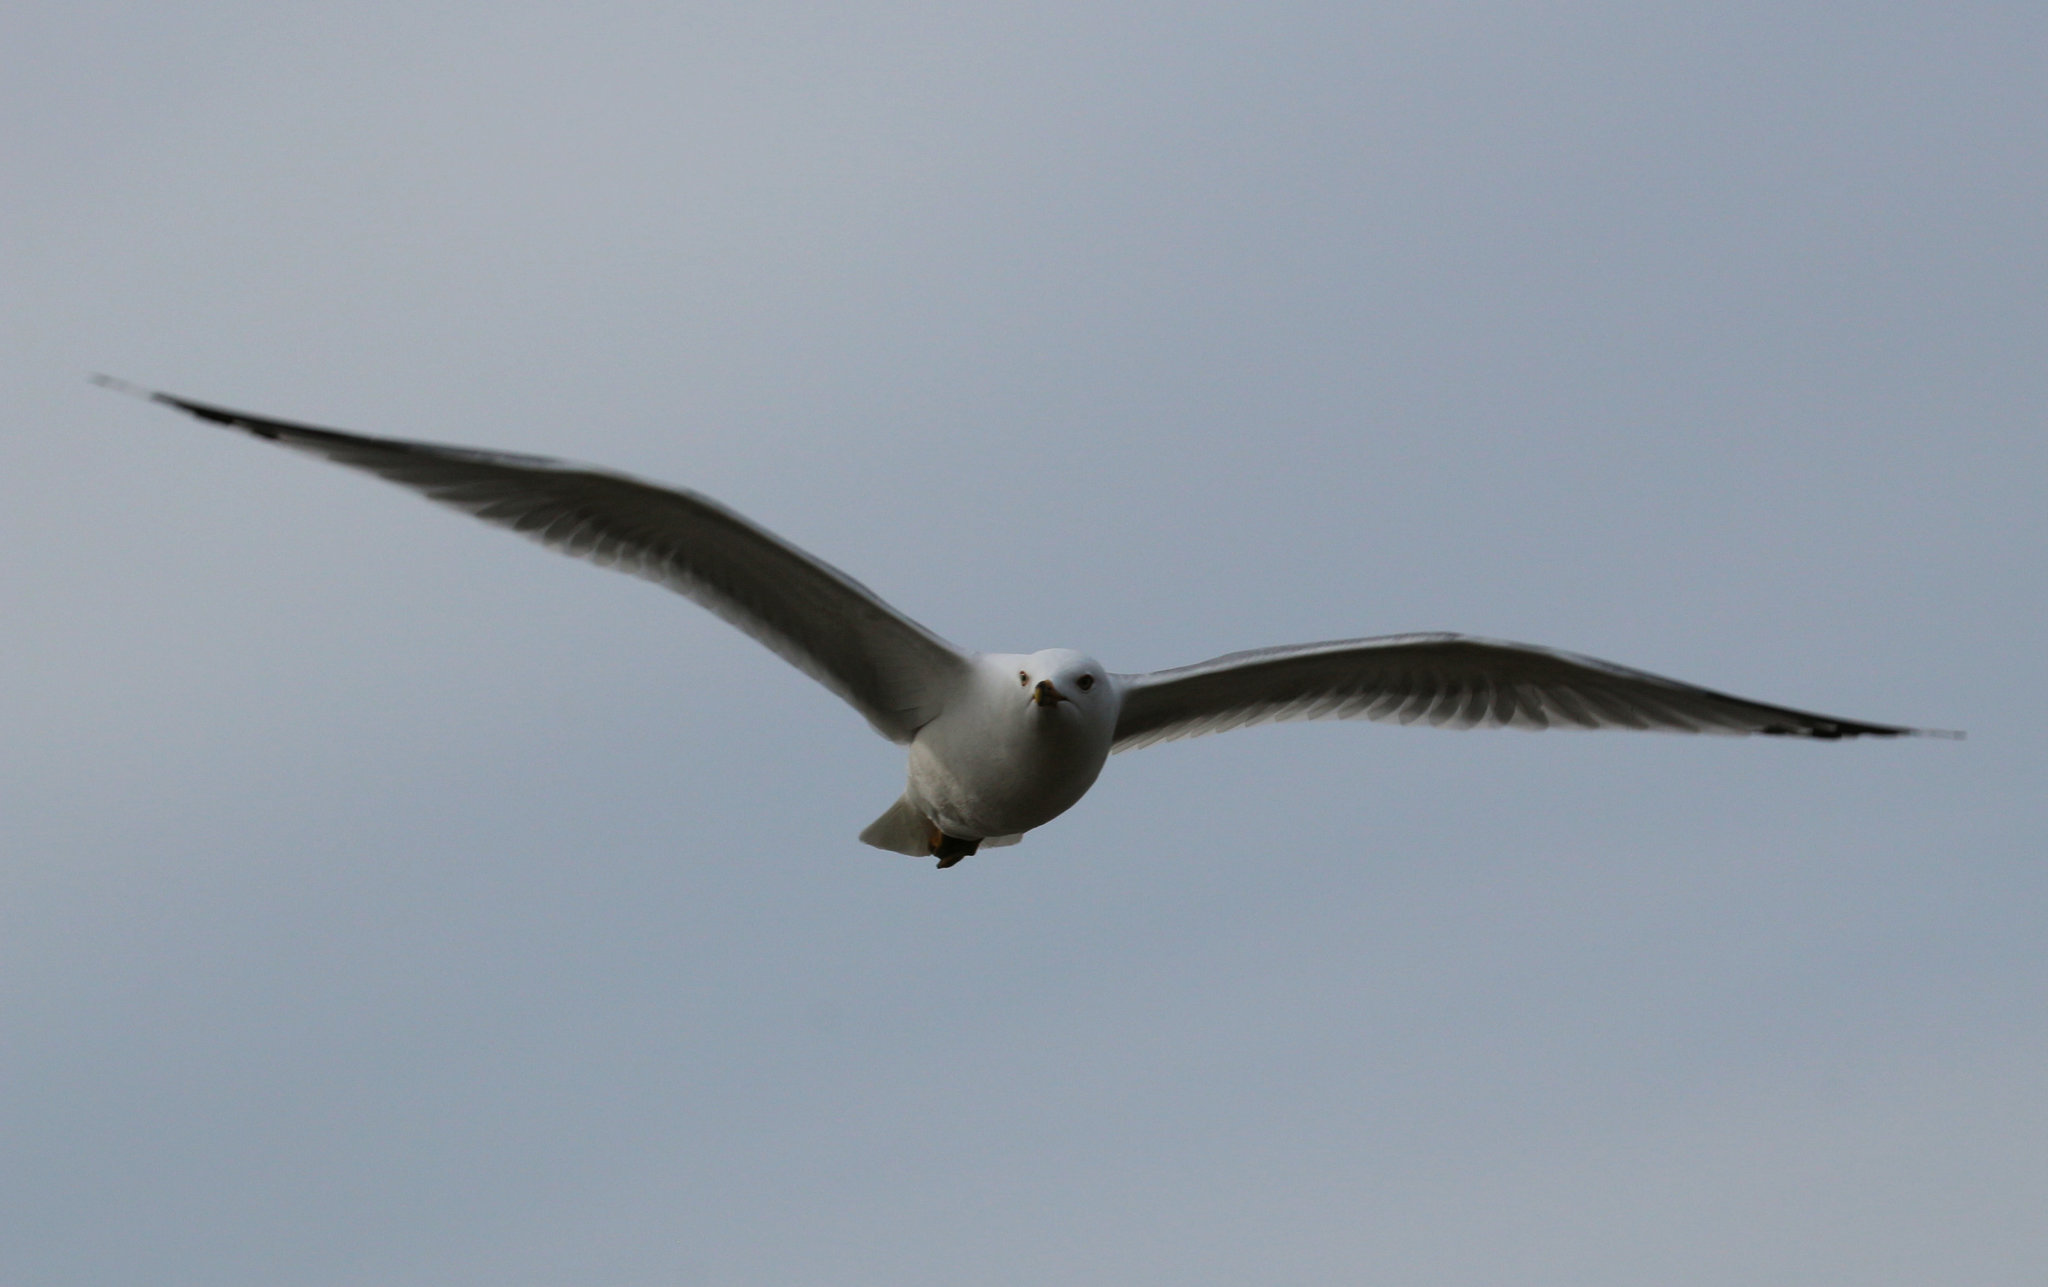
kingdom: Animalia
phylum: Chordata
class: Aves
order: Charadriiformes
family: Laridae
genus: Larus
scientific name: Larus delawarensis
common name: Ring-billed gull
